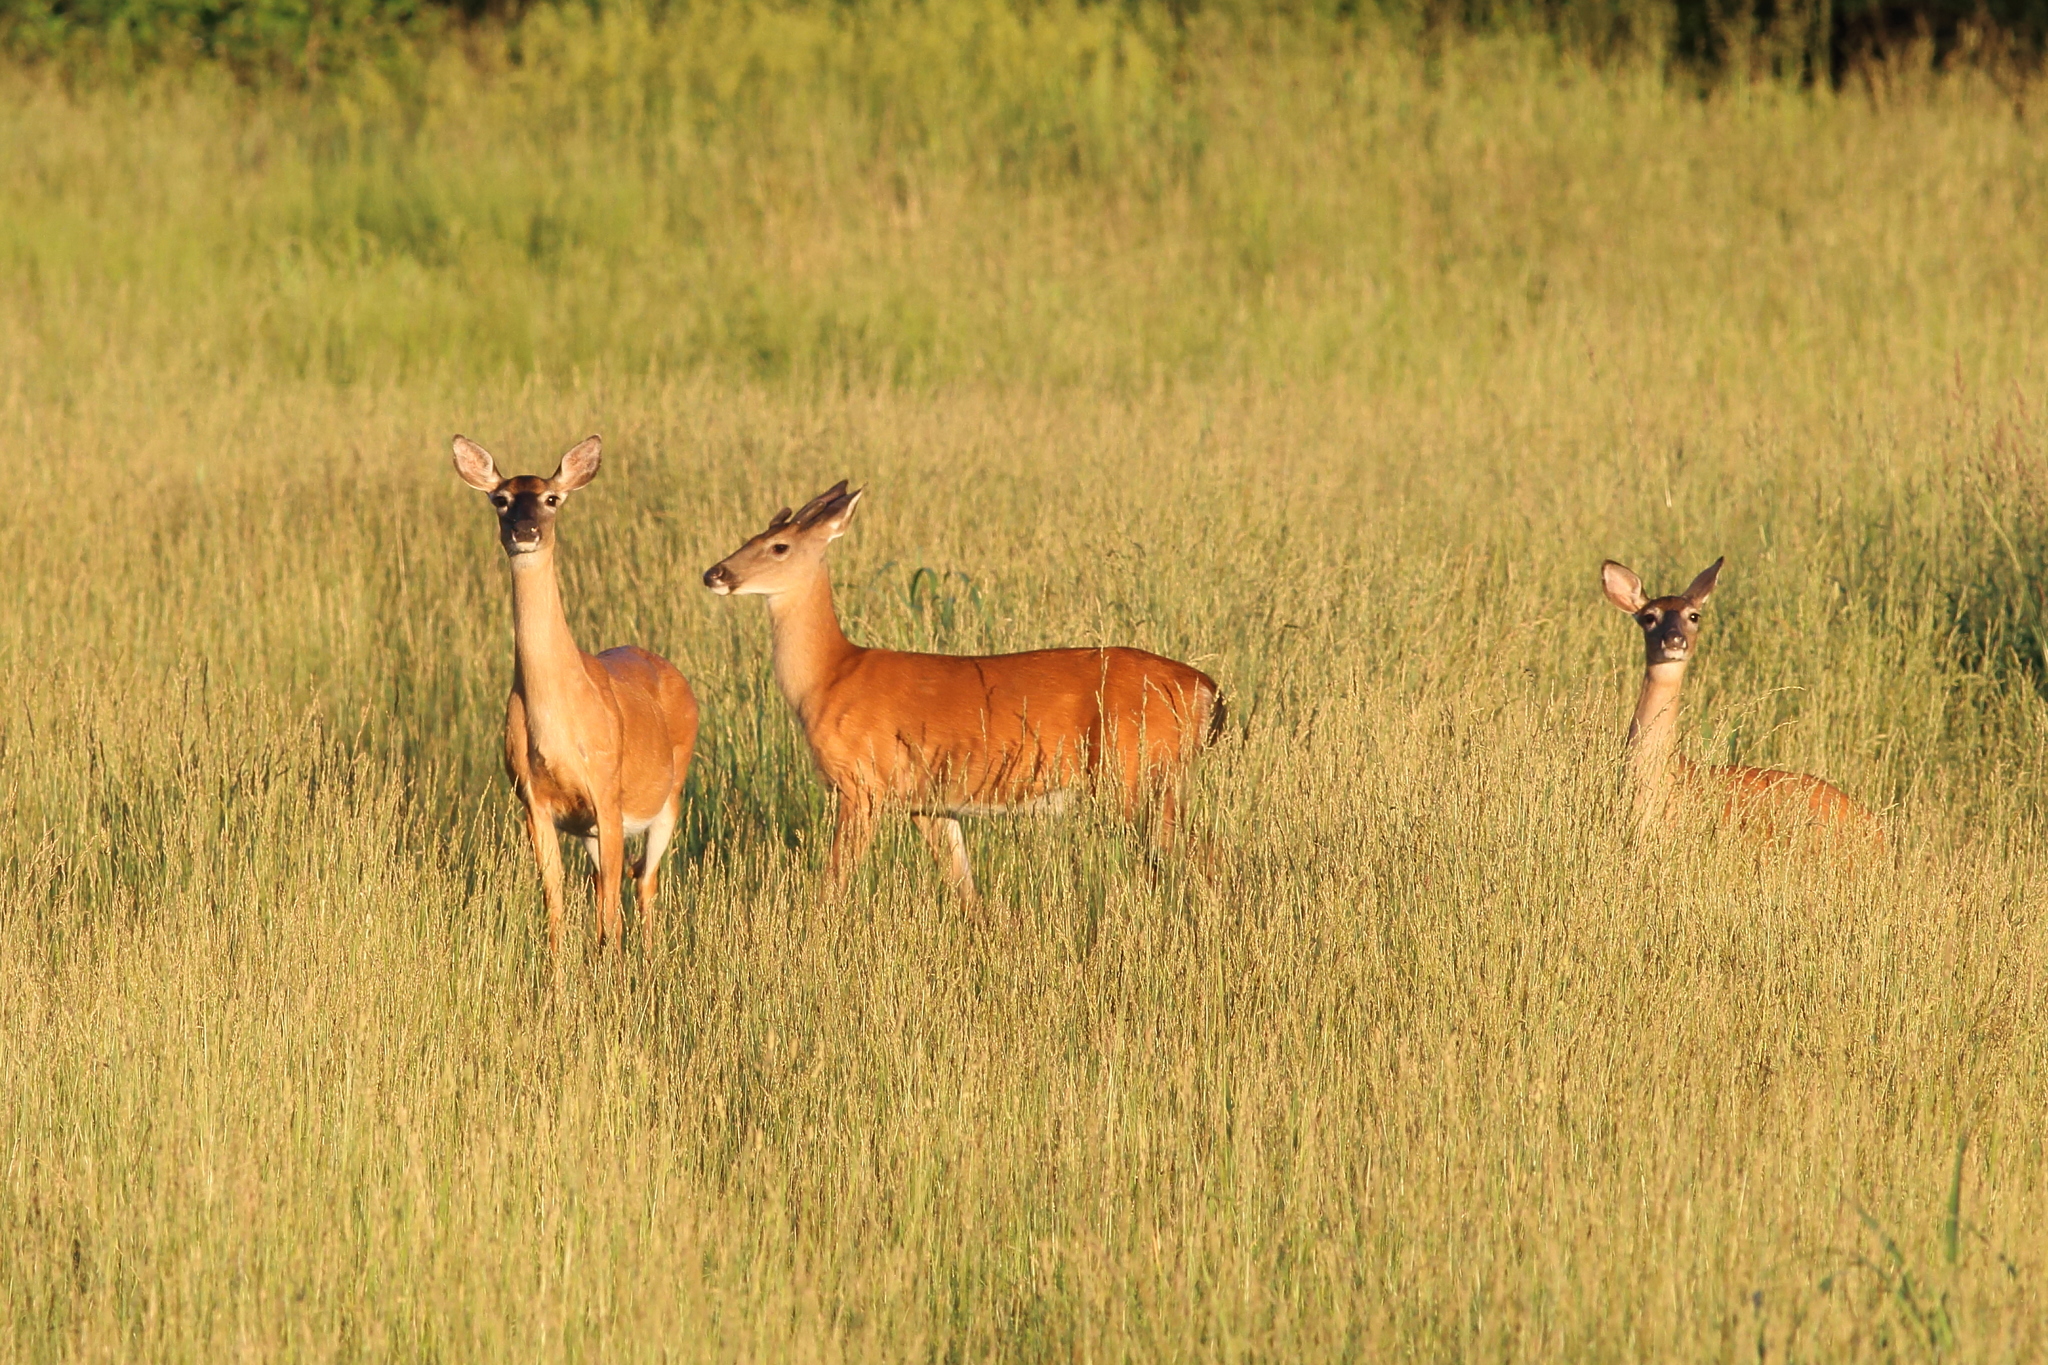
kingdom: Animalia
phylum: Chordata
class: Mammalia
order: Artiodactyla
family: Cervidae
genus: Odocoileus
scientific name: Odocoileus virginianus
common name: White-tailed deer
